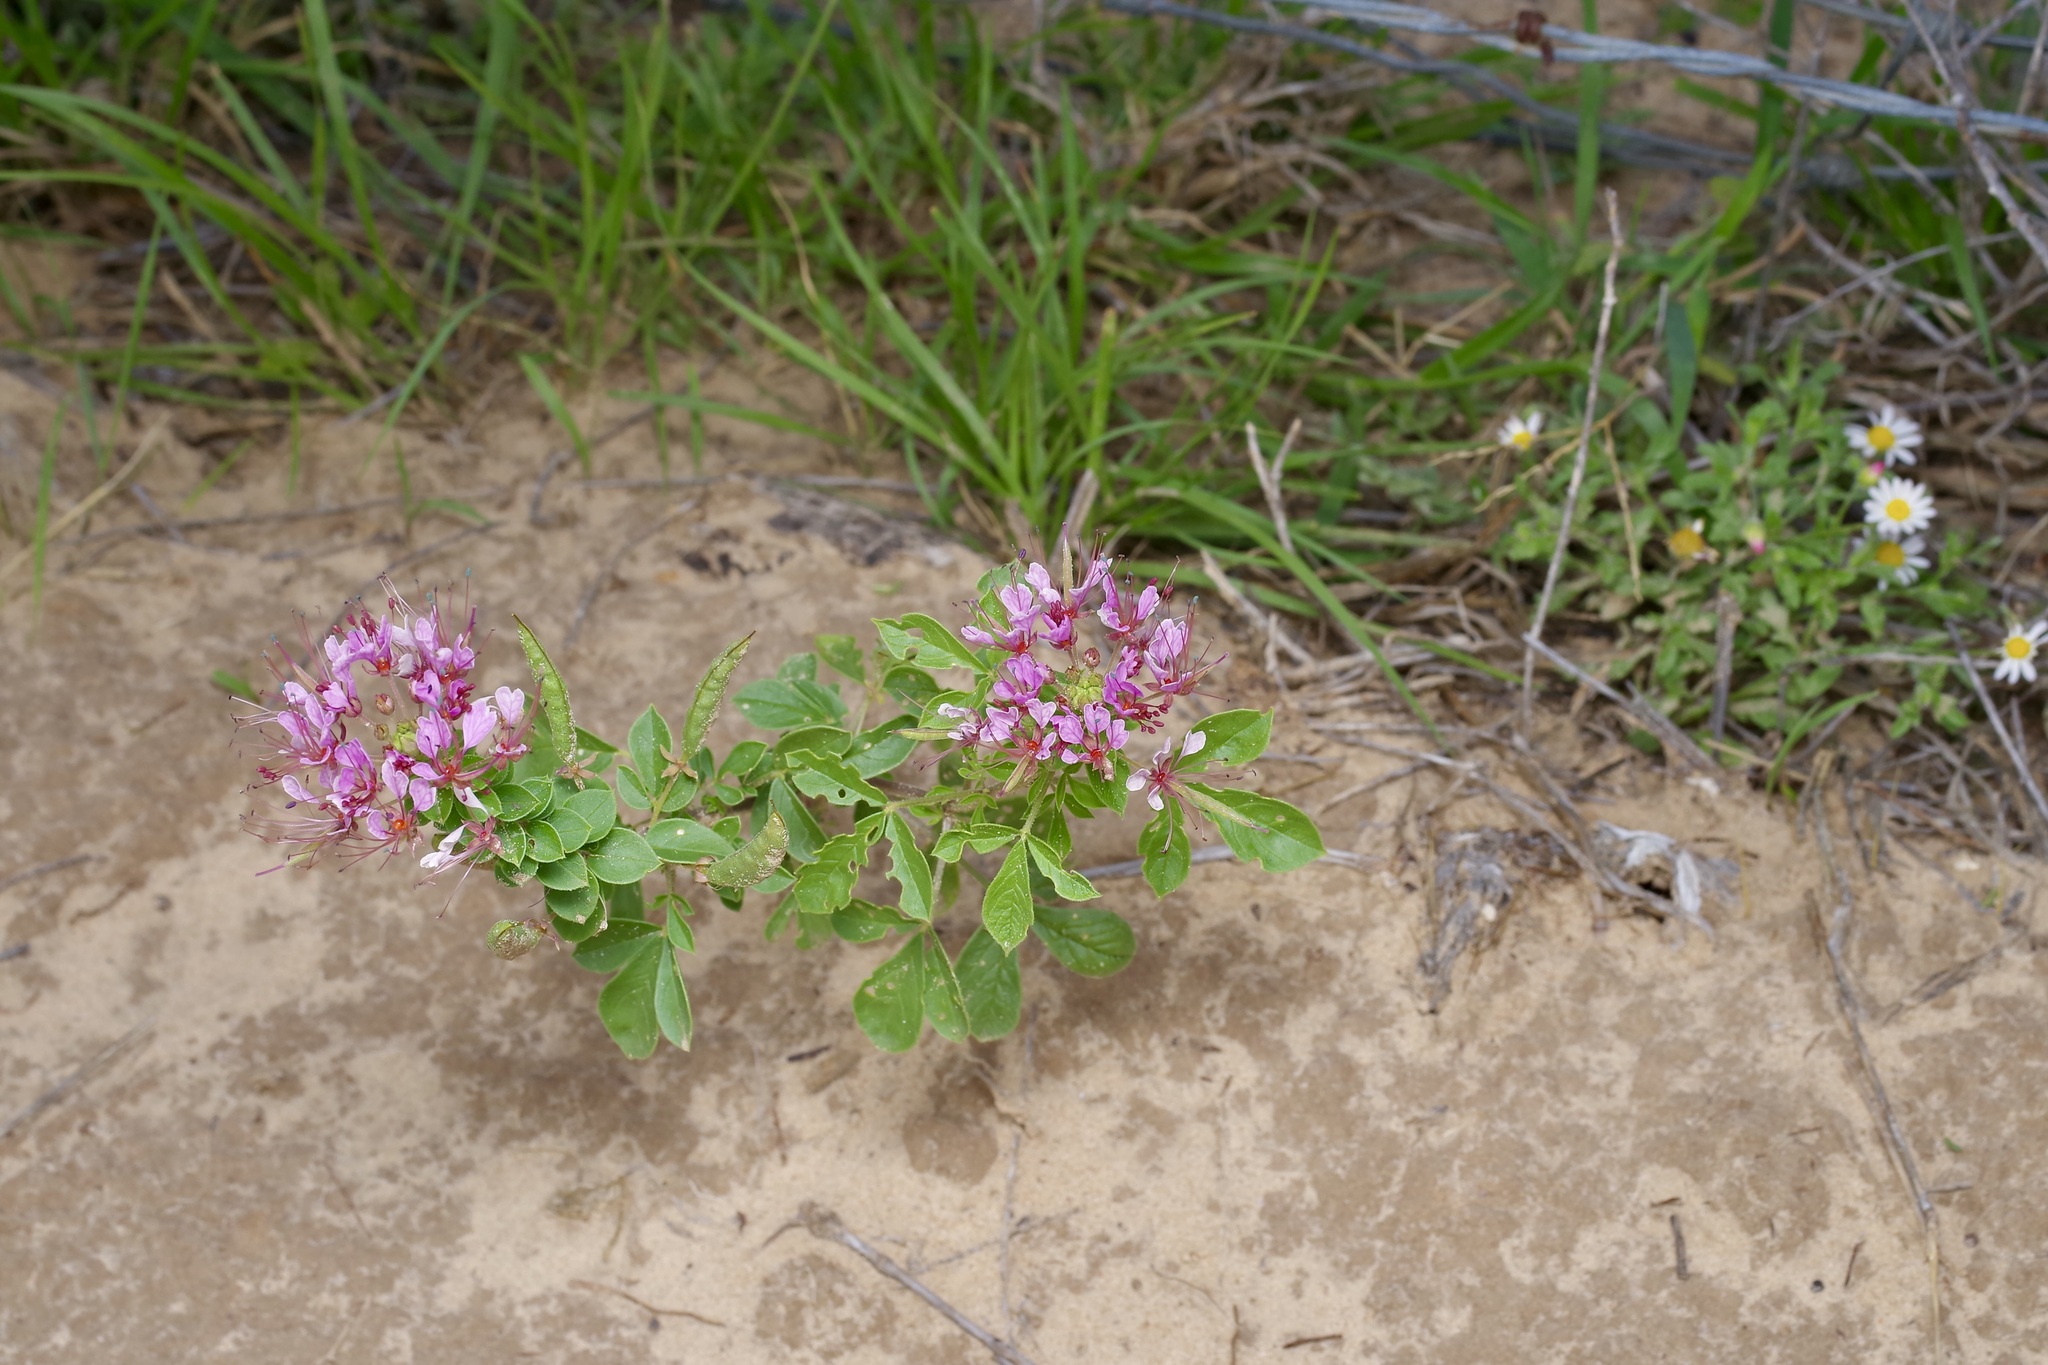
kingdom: Plantae
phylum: Tracheophyta
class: Magnoliopsida
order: Brassicales
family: Cleomaceae
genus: Polanisia
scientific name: Polanisia dodecandra
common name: Clammyweed
